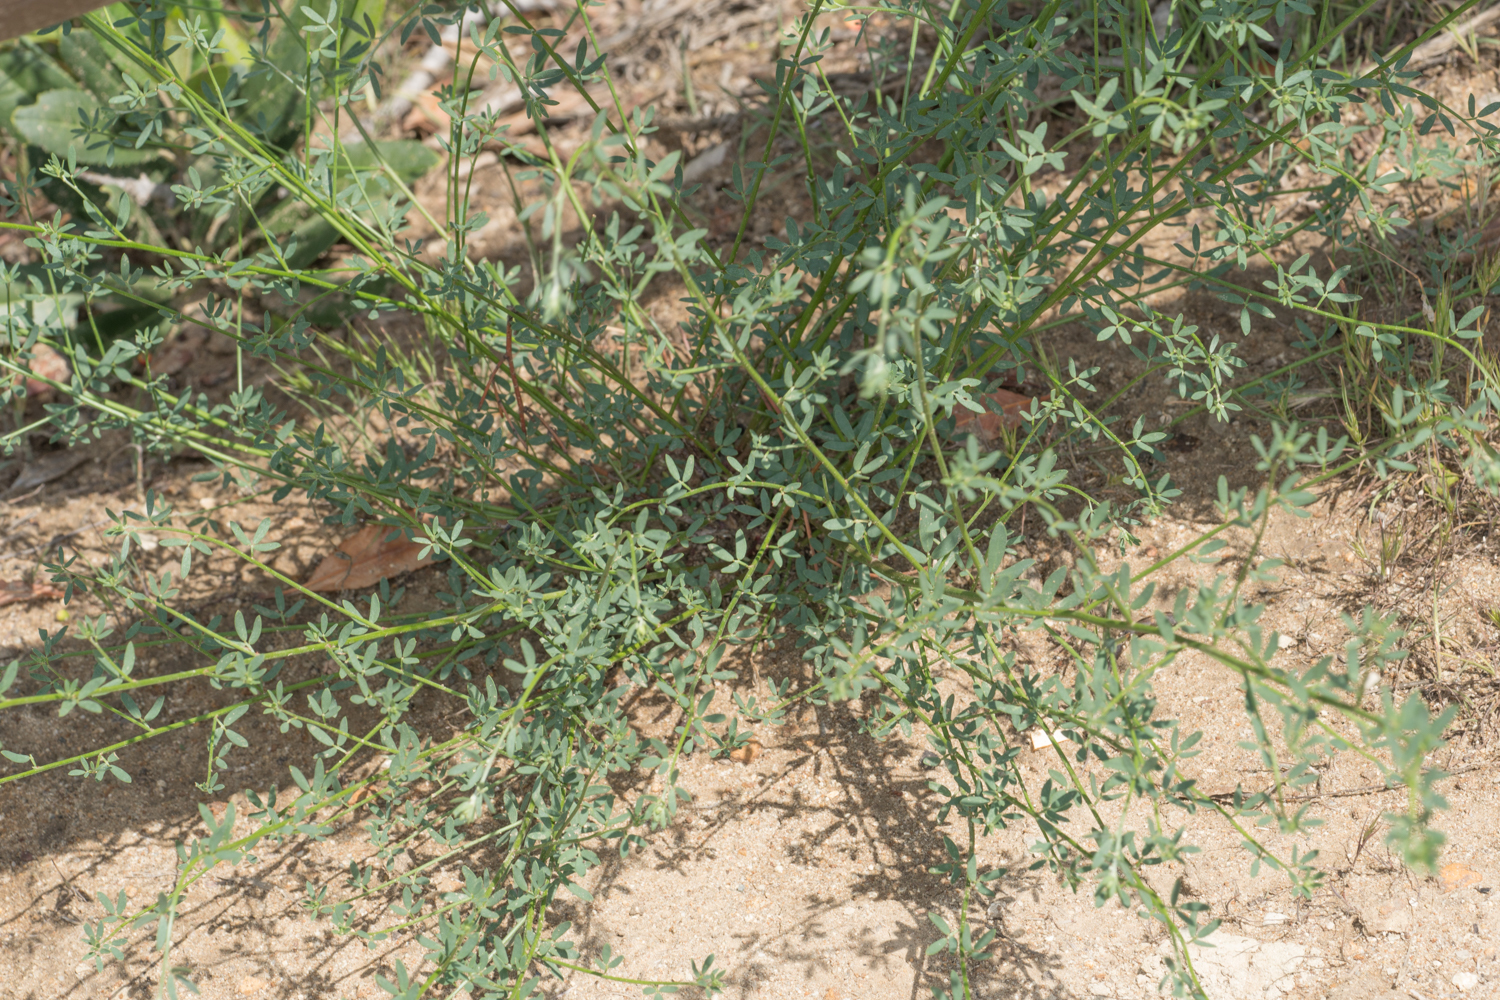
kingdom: Plantae
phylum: Tracheophyta
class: Magnoliopsida
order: Fabales
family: Fabaceae
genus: Acmispon
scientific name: Acmispon glaber
